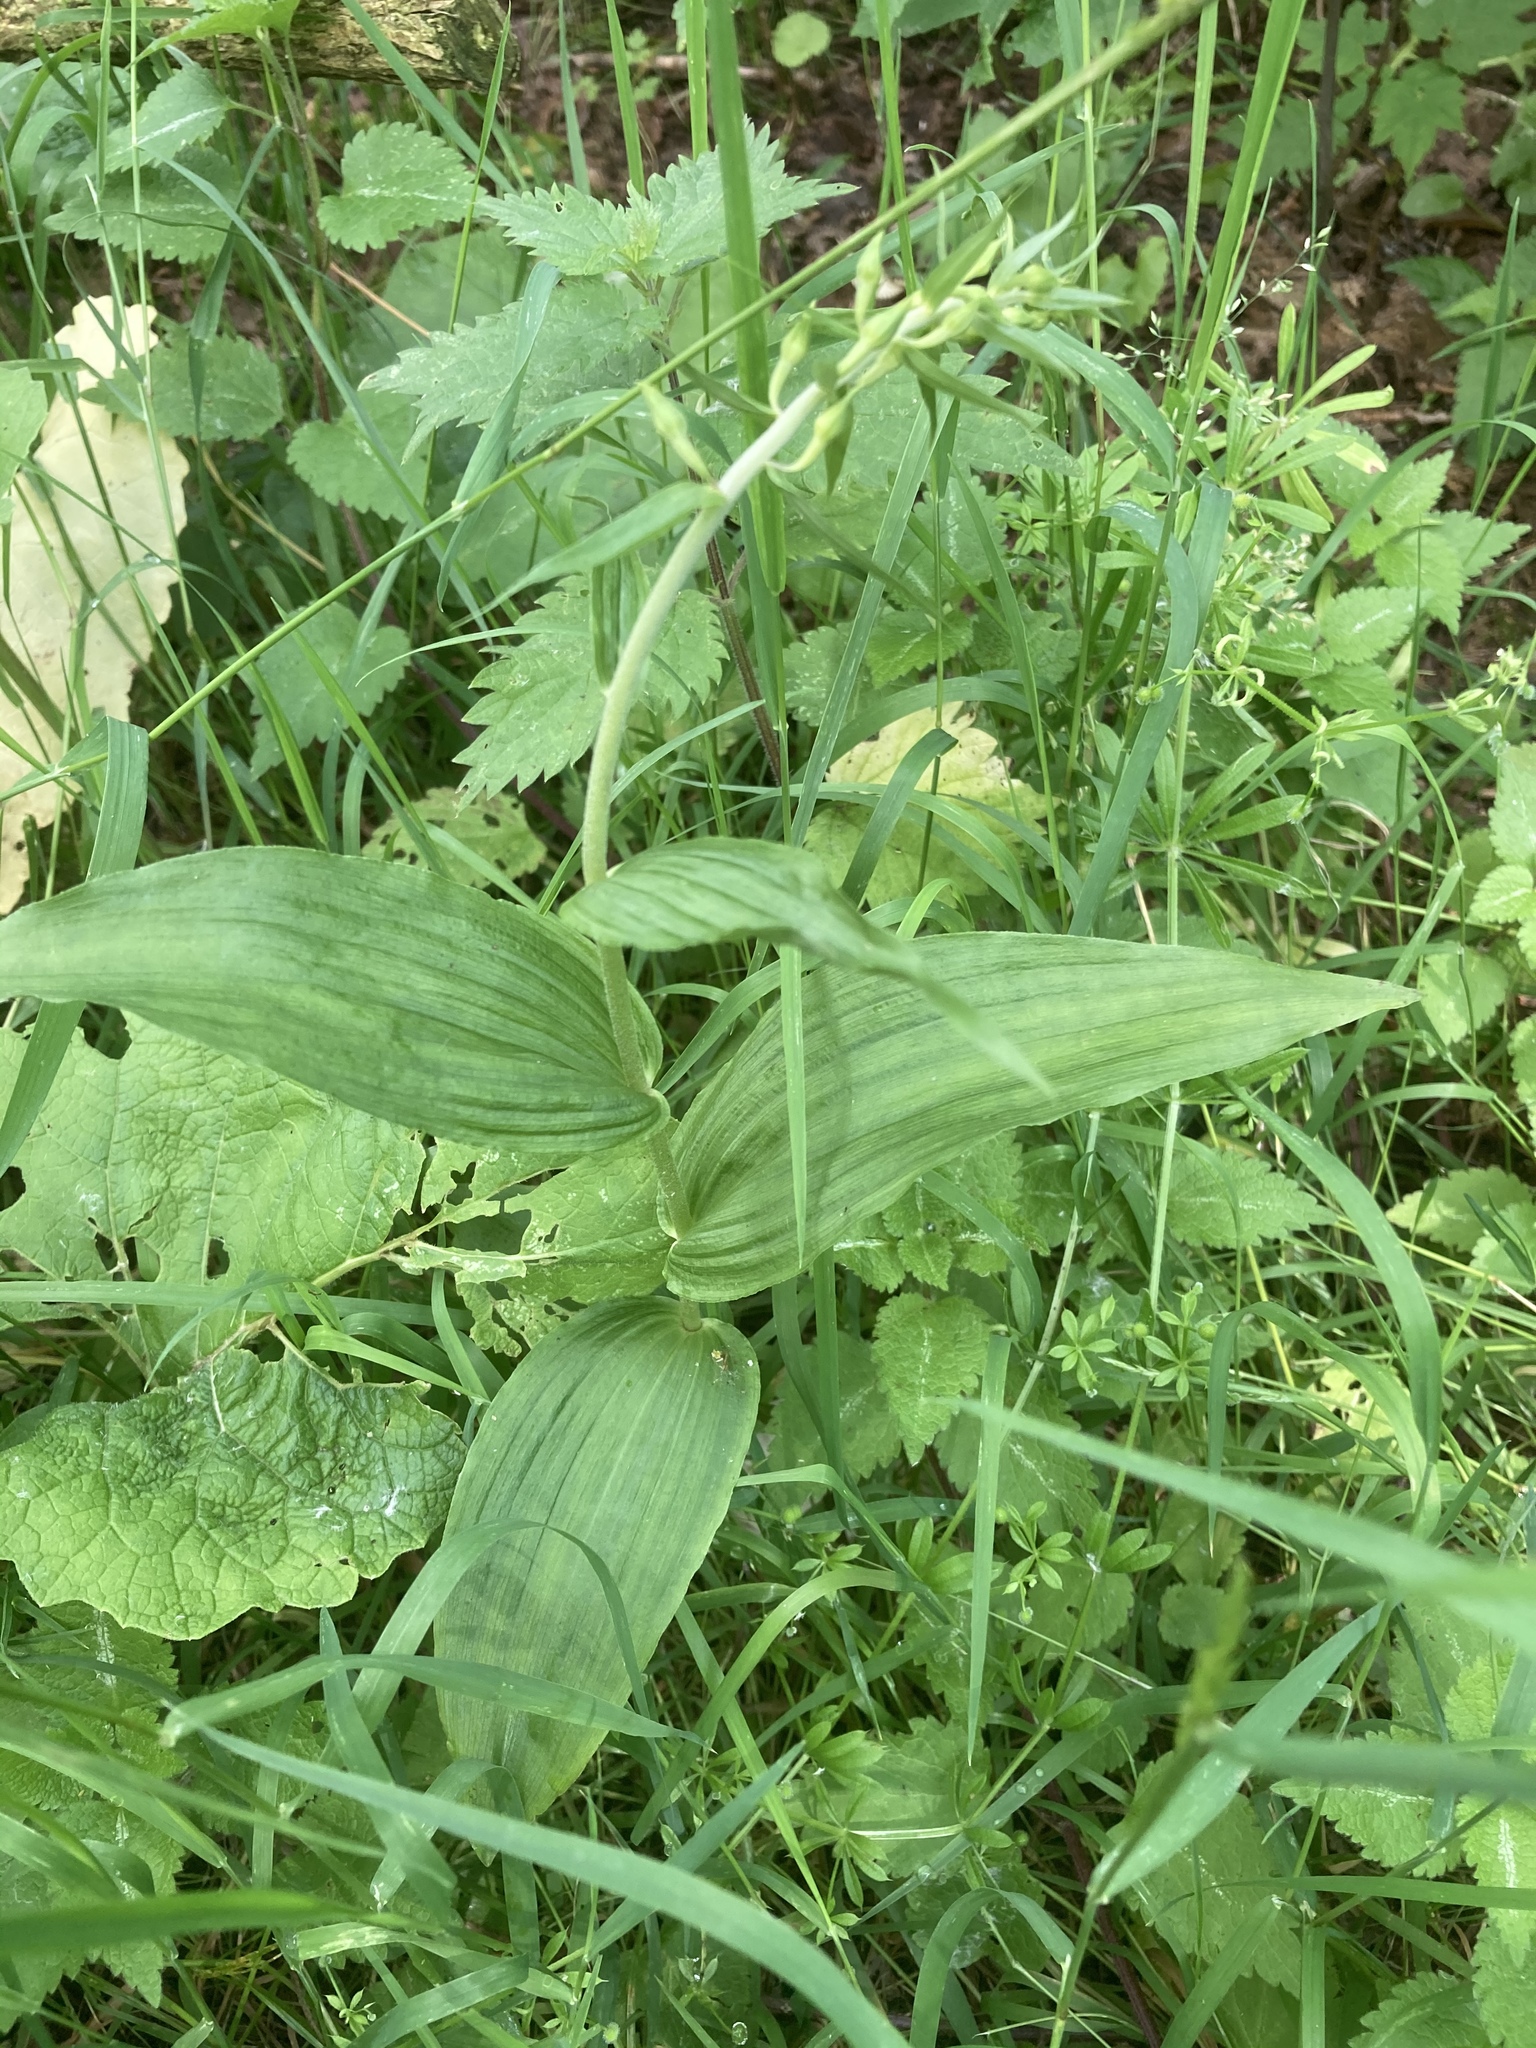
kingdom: Plantae
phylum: Tracheophyta
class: Liliopsida
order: Asparagales
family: Orchidaceae
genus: Epipactis
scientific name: Epipactis helleborine
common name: Broad-leaved helleborine
